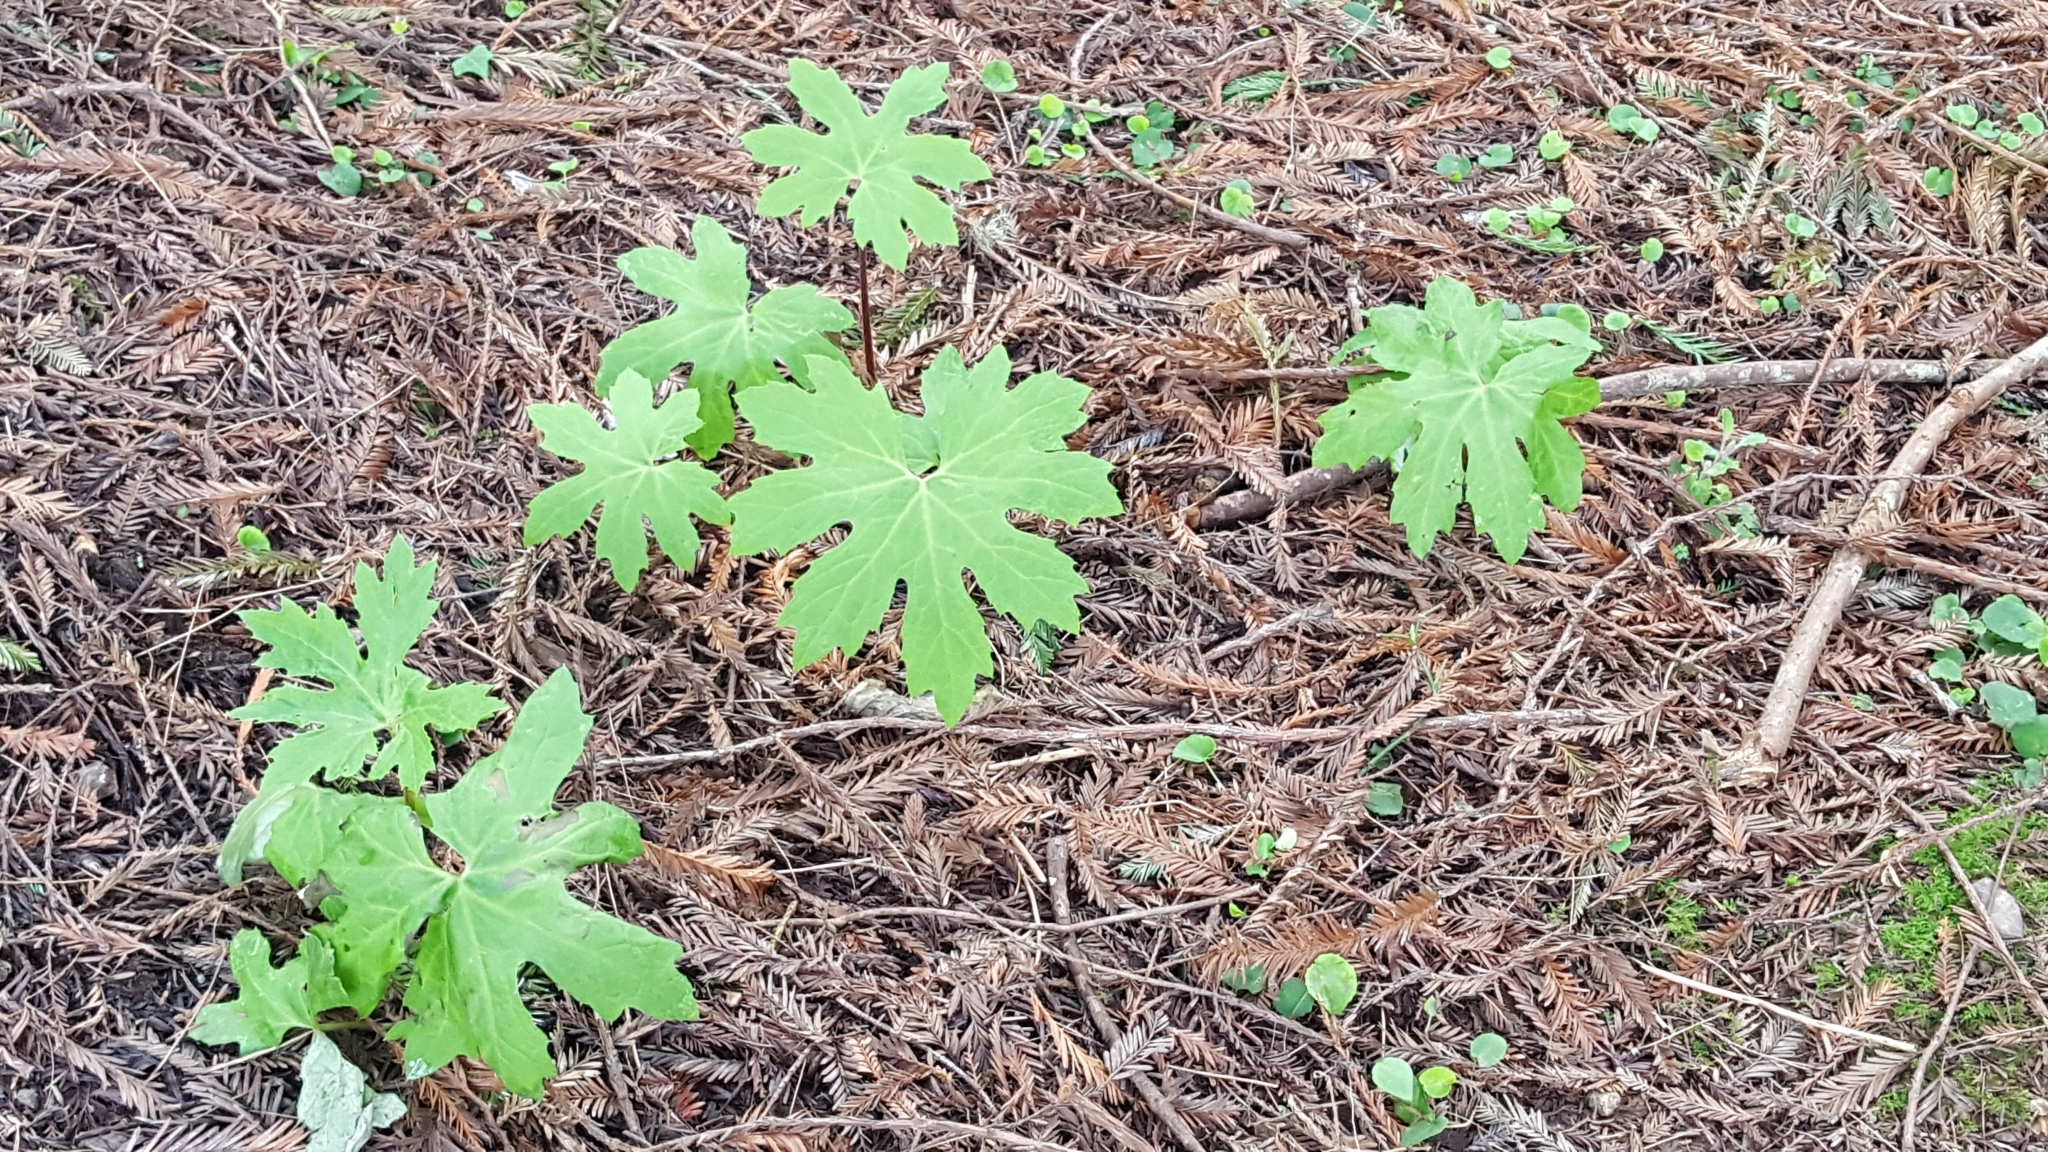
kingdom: Plantae
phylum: Tracheophyta
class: Magnoliopsida
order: Asterales
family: Asteraceae
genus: Petasites
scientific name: Petasites frigidus
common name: Arctic butterbur
